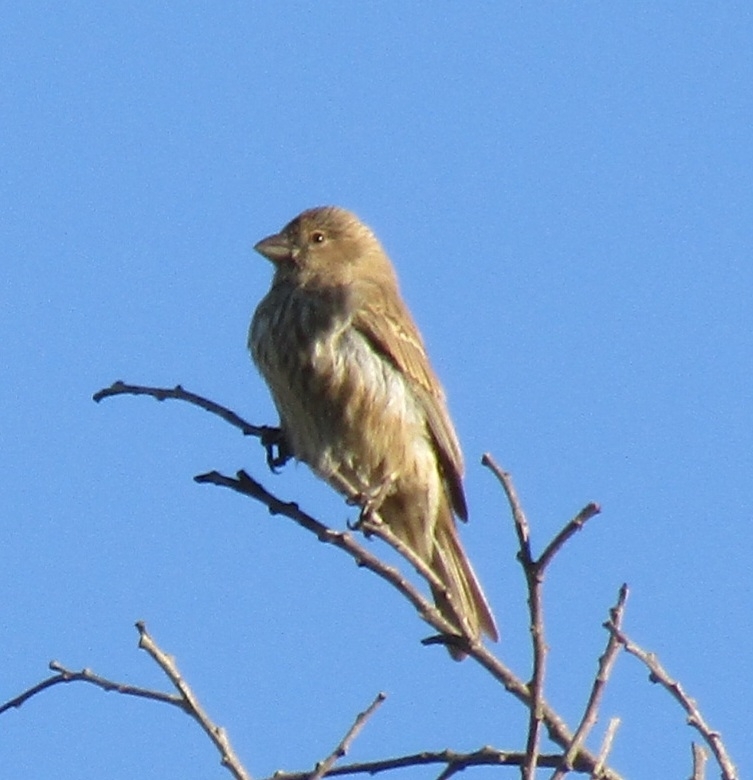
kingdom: Animalia
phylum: Chordata
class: Aves
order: Passeriformes
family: Fringillidae
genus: Haemorhous
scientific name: Haemorhous mexicanus
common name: House finch
